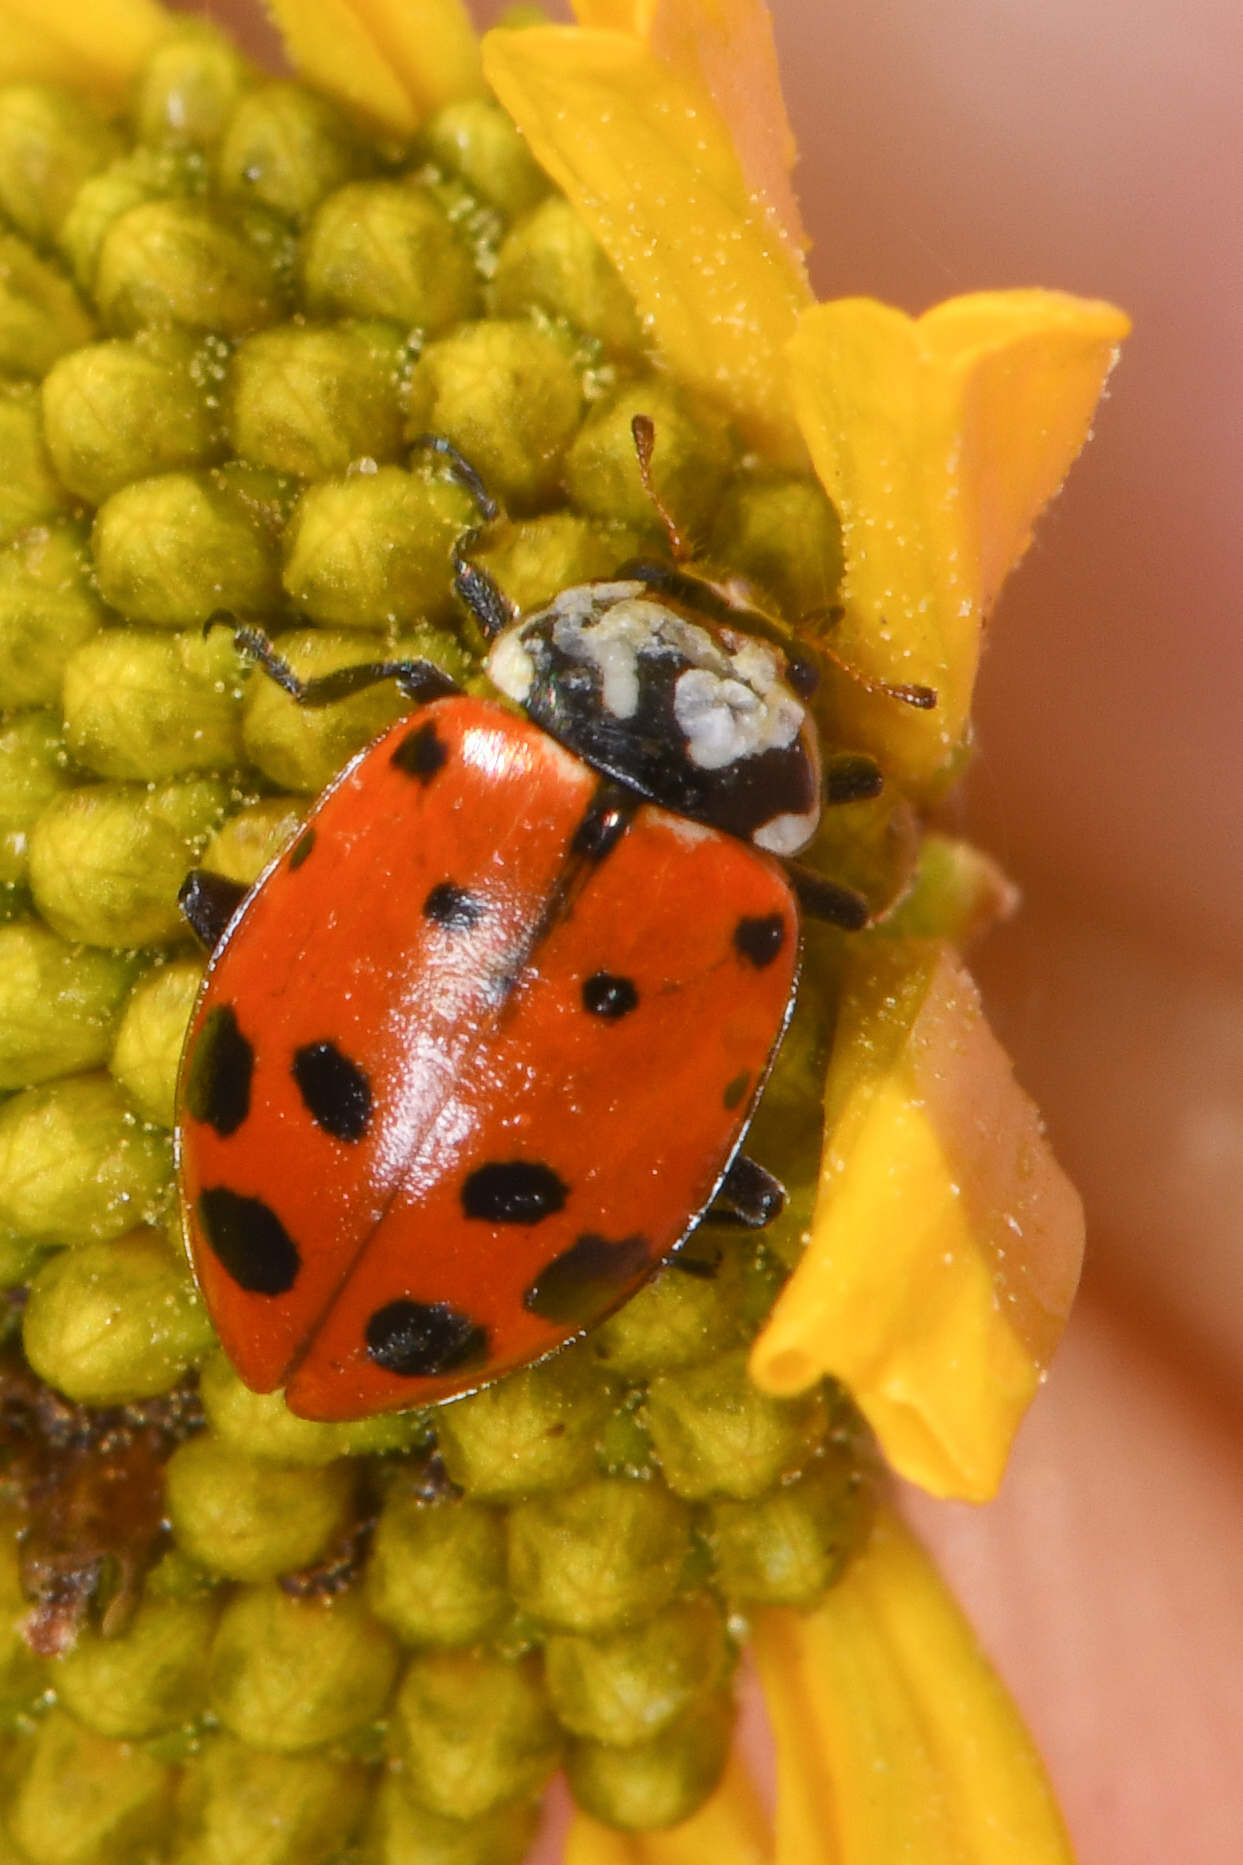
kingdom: Animalia
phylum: Arthropoda
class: Insecta
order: Coleoptera
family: Coccinellidae
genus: Hippodamia
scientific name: Hippodamia convergens
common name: Convergent lady beetle
